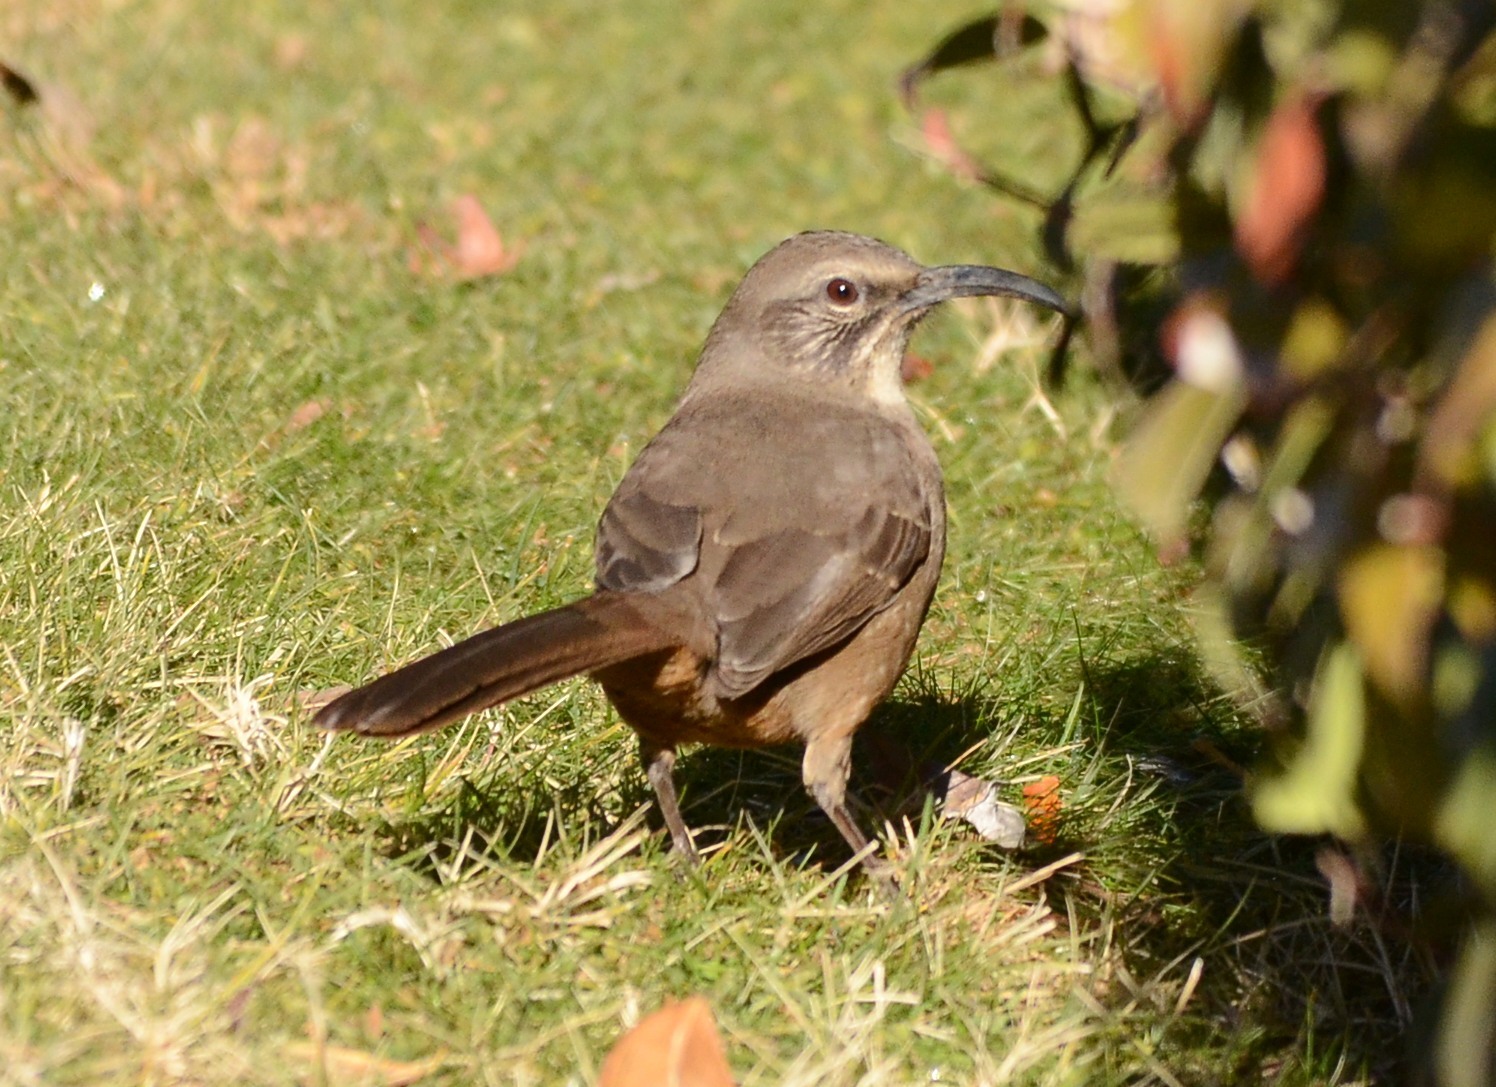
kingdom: Animalia
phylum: Chordata
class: Aves
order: Passeriformes
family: Mimidae
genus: Toxostoma
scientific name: Toxostoma redivivum
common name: California thrasher
